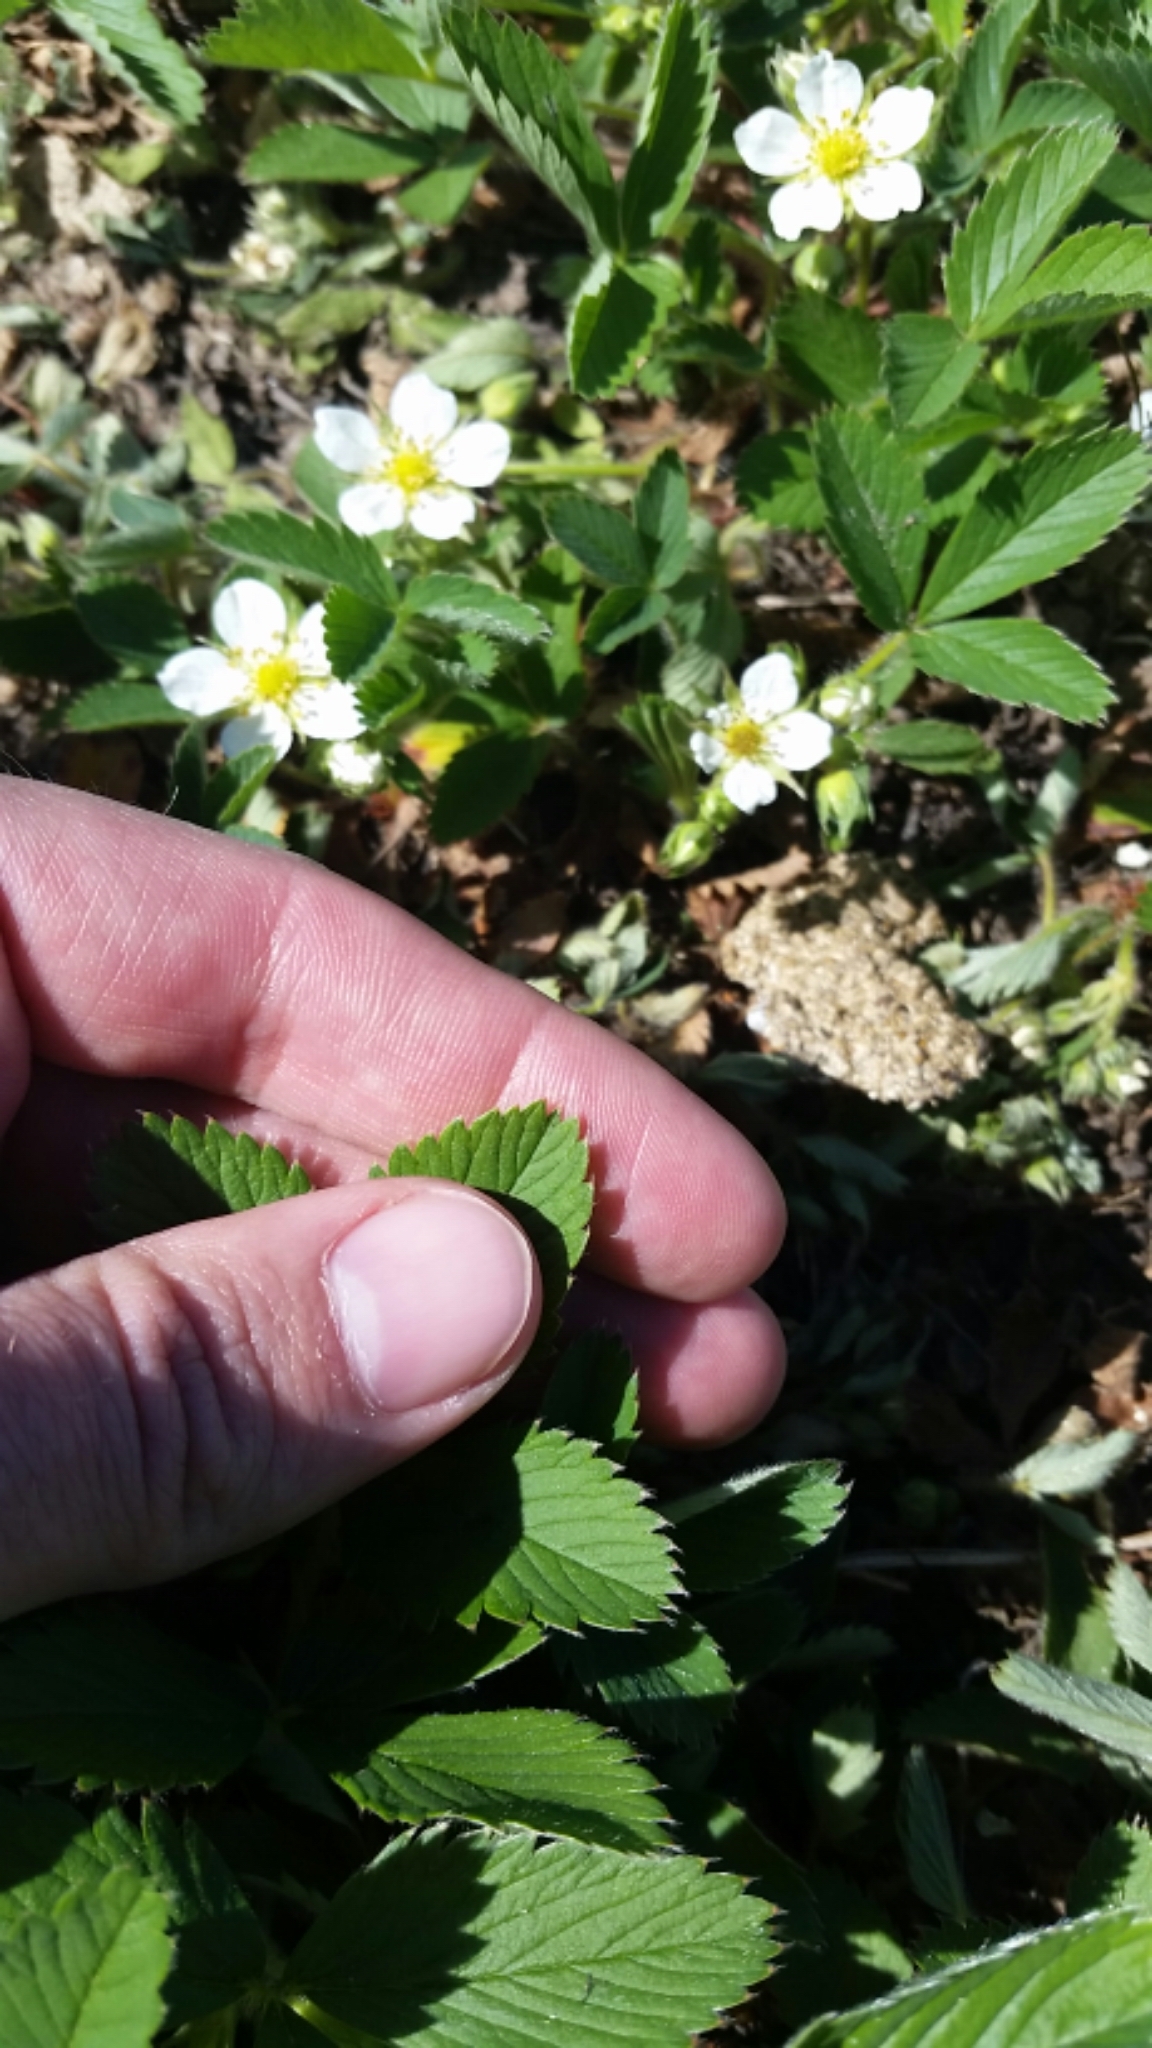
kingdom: Plantae
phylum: Tracheophyta
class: Magnoliopsida
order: Rosales
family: Rosaceae
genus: Fragaria
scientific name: Fragaria virginiana
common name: Thickleaved wild strawberry
